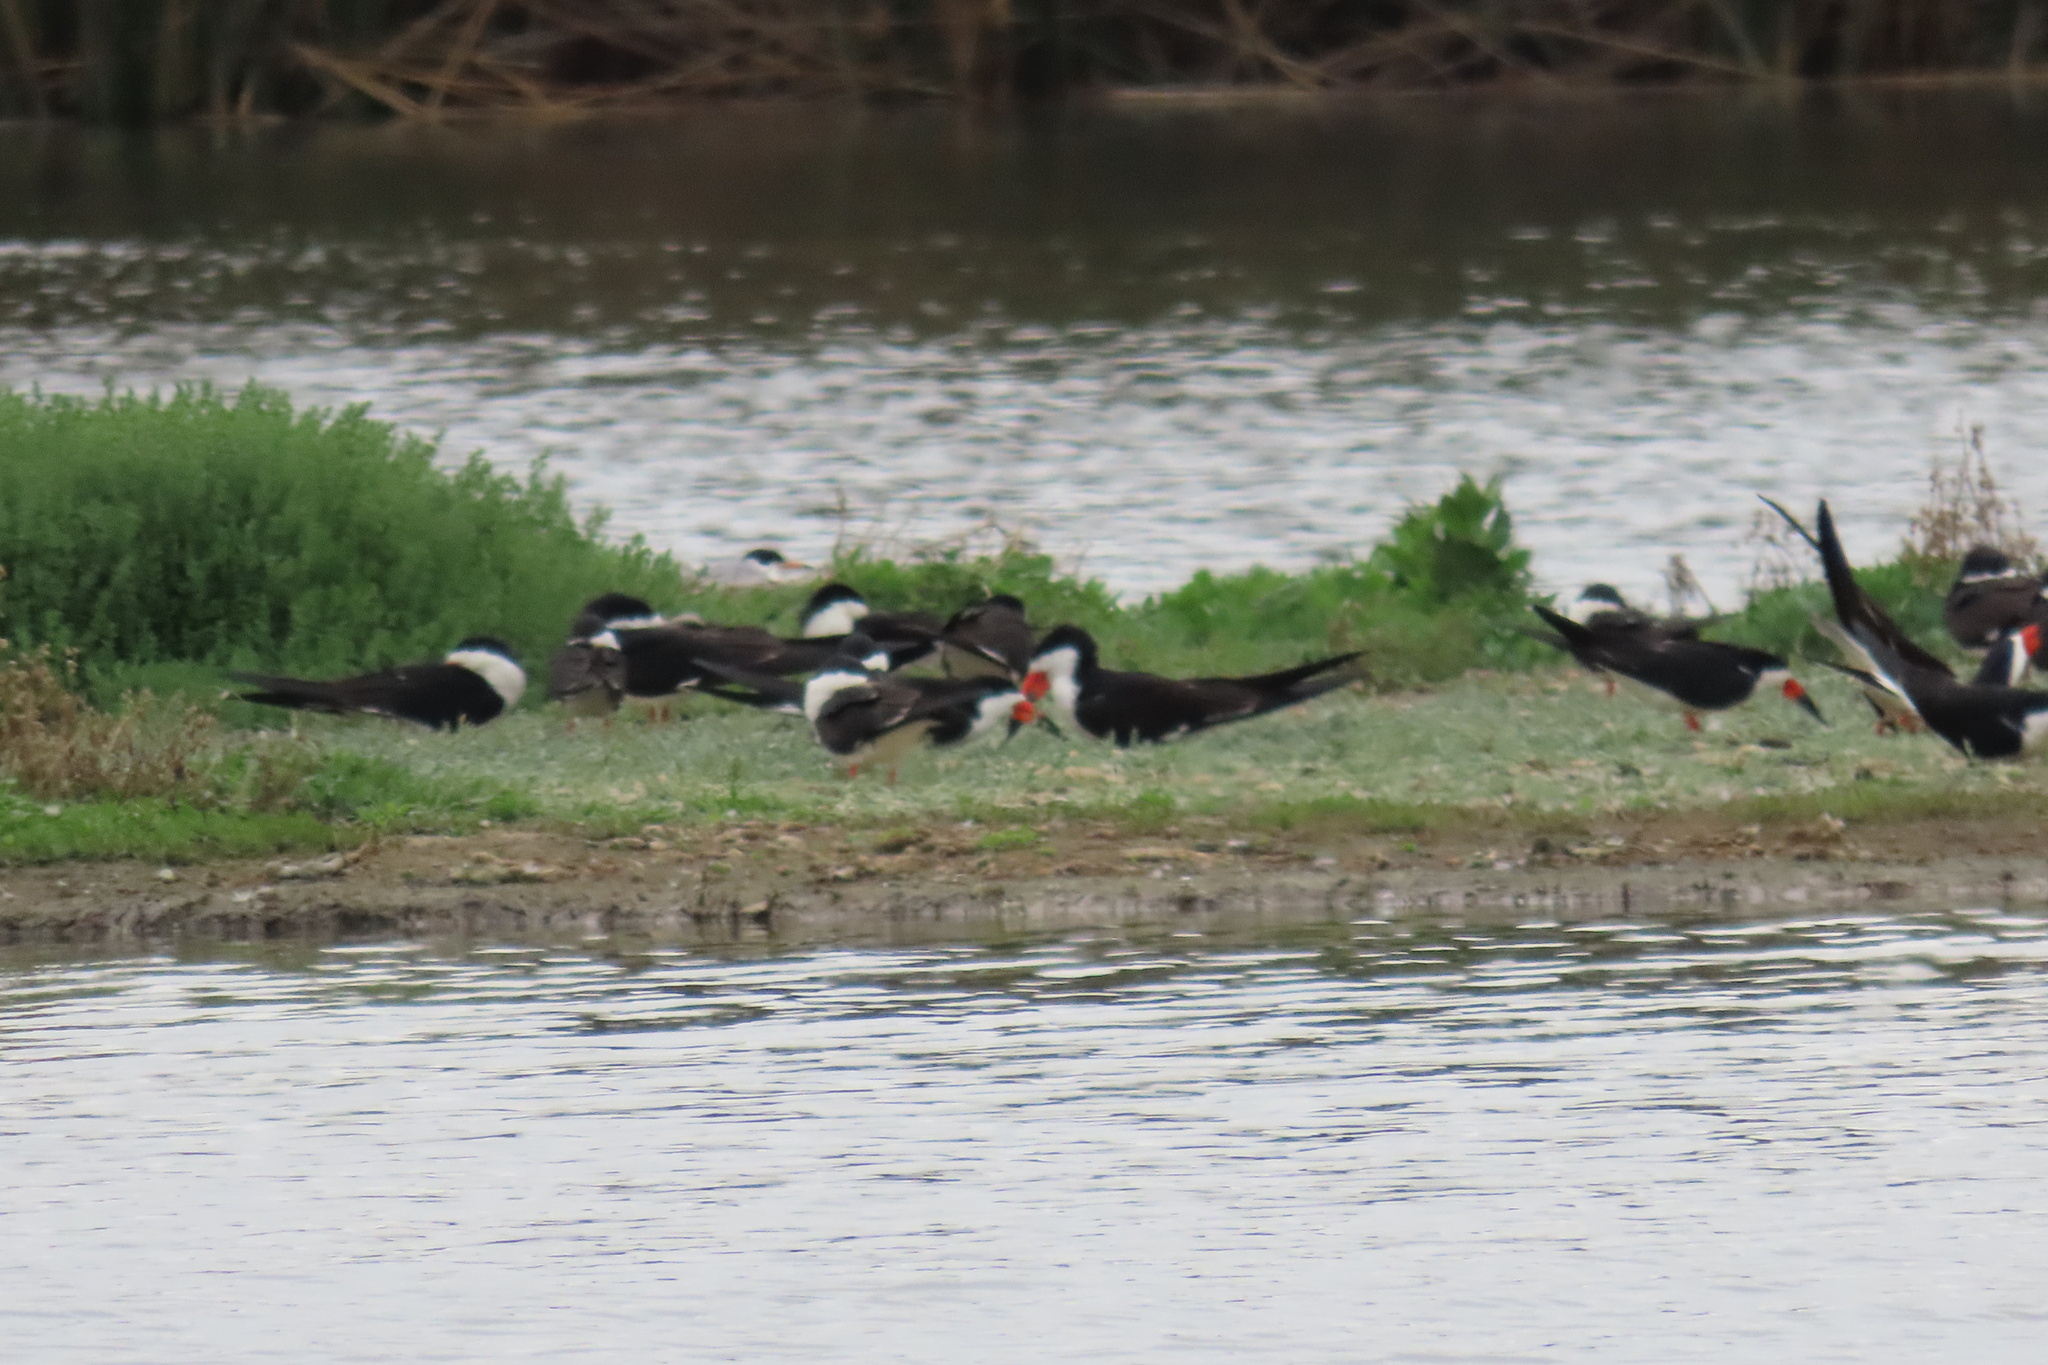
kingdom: Animalia
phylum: Chordata
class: Aves
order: Charadriiformes
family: Laridae
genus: Rynchops
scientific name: Rynchops niger
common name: Black skimmer
